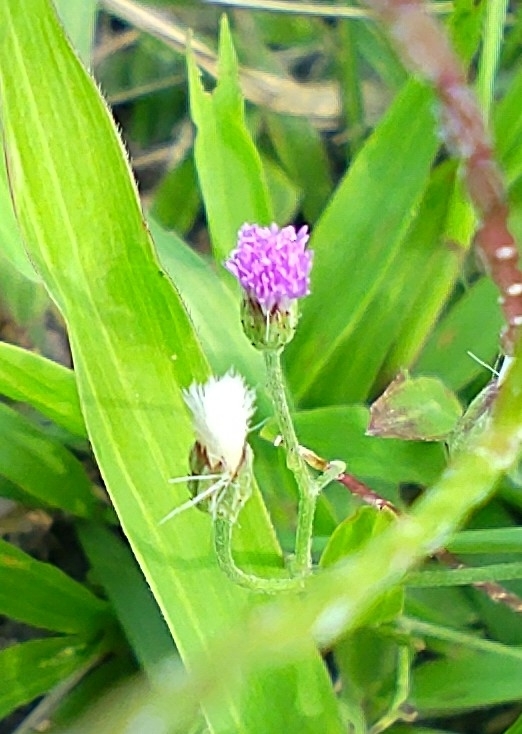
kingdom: Plantae
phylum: Tracheophyta
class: Magnoliopsida
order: Asterales
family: Asteraceae
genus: Cyanthillium
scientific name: Cyanthillium cinereum
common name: Little ironweed
